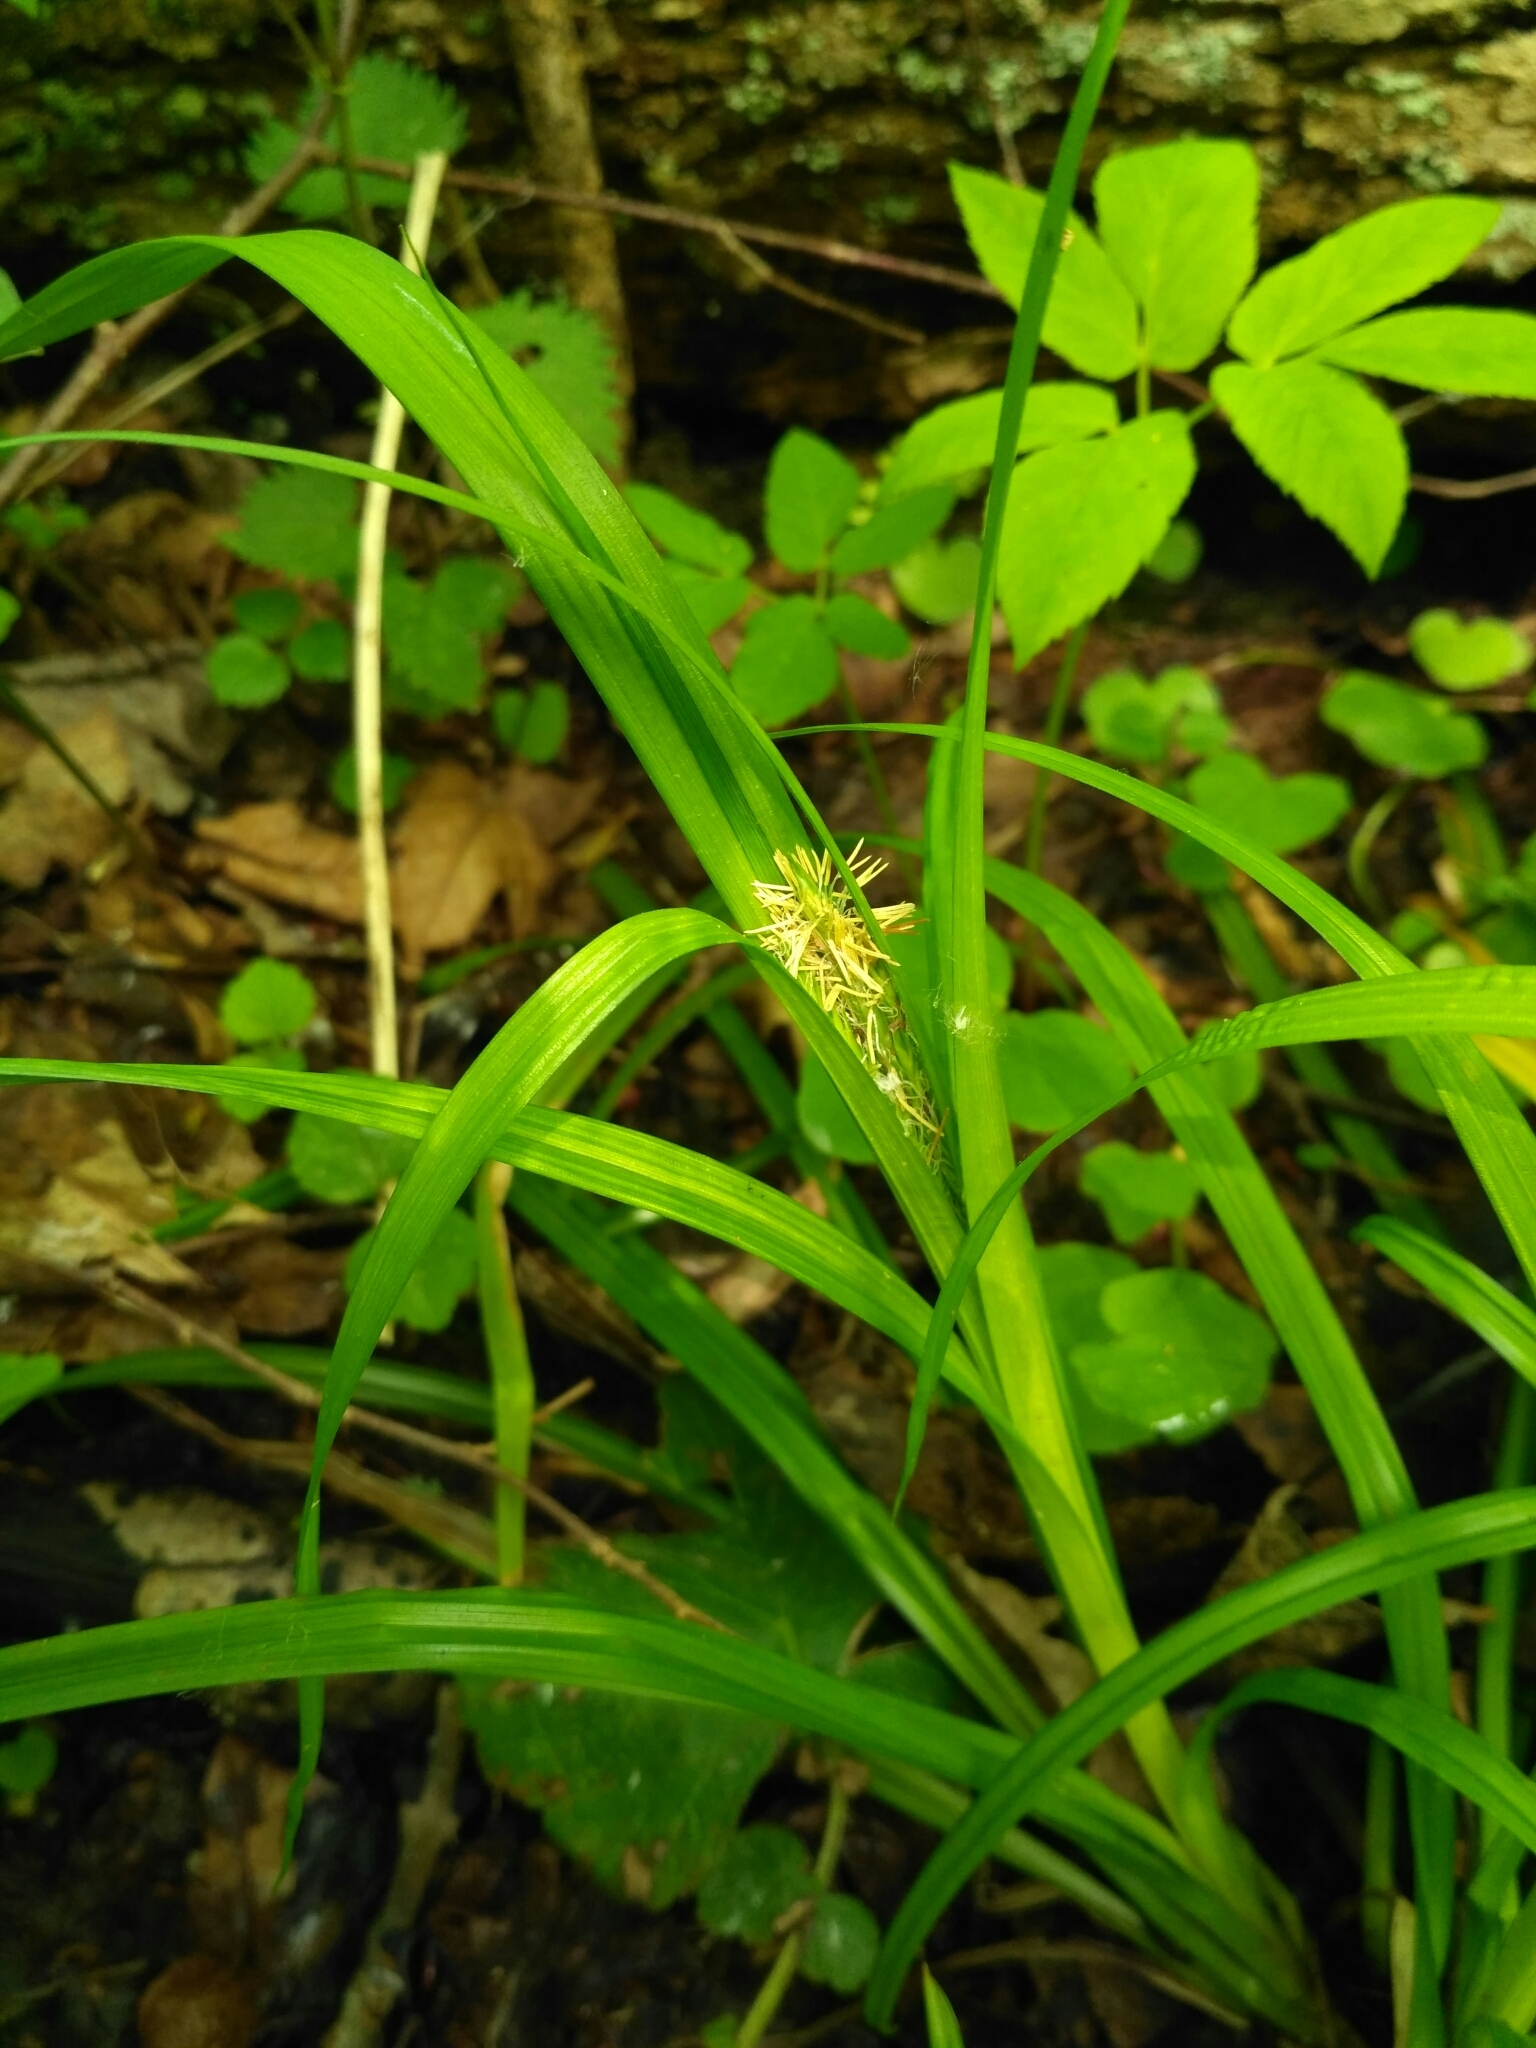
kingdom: Plantae
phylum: Tracheophyta
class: Liliopsida
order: Poales
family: Cyperaceae
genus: Carex
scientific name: Carex sylvatica
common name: Wood-sedge
